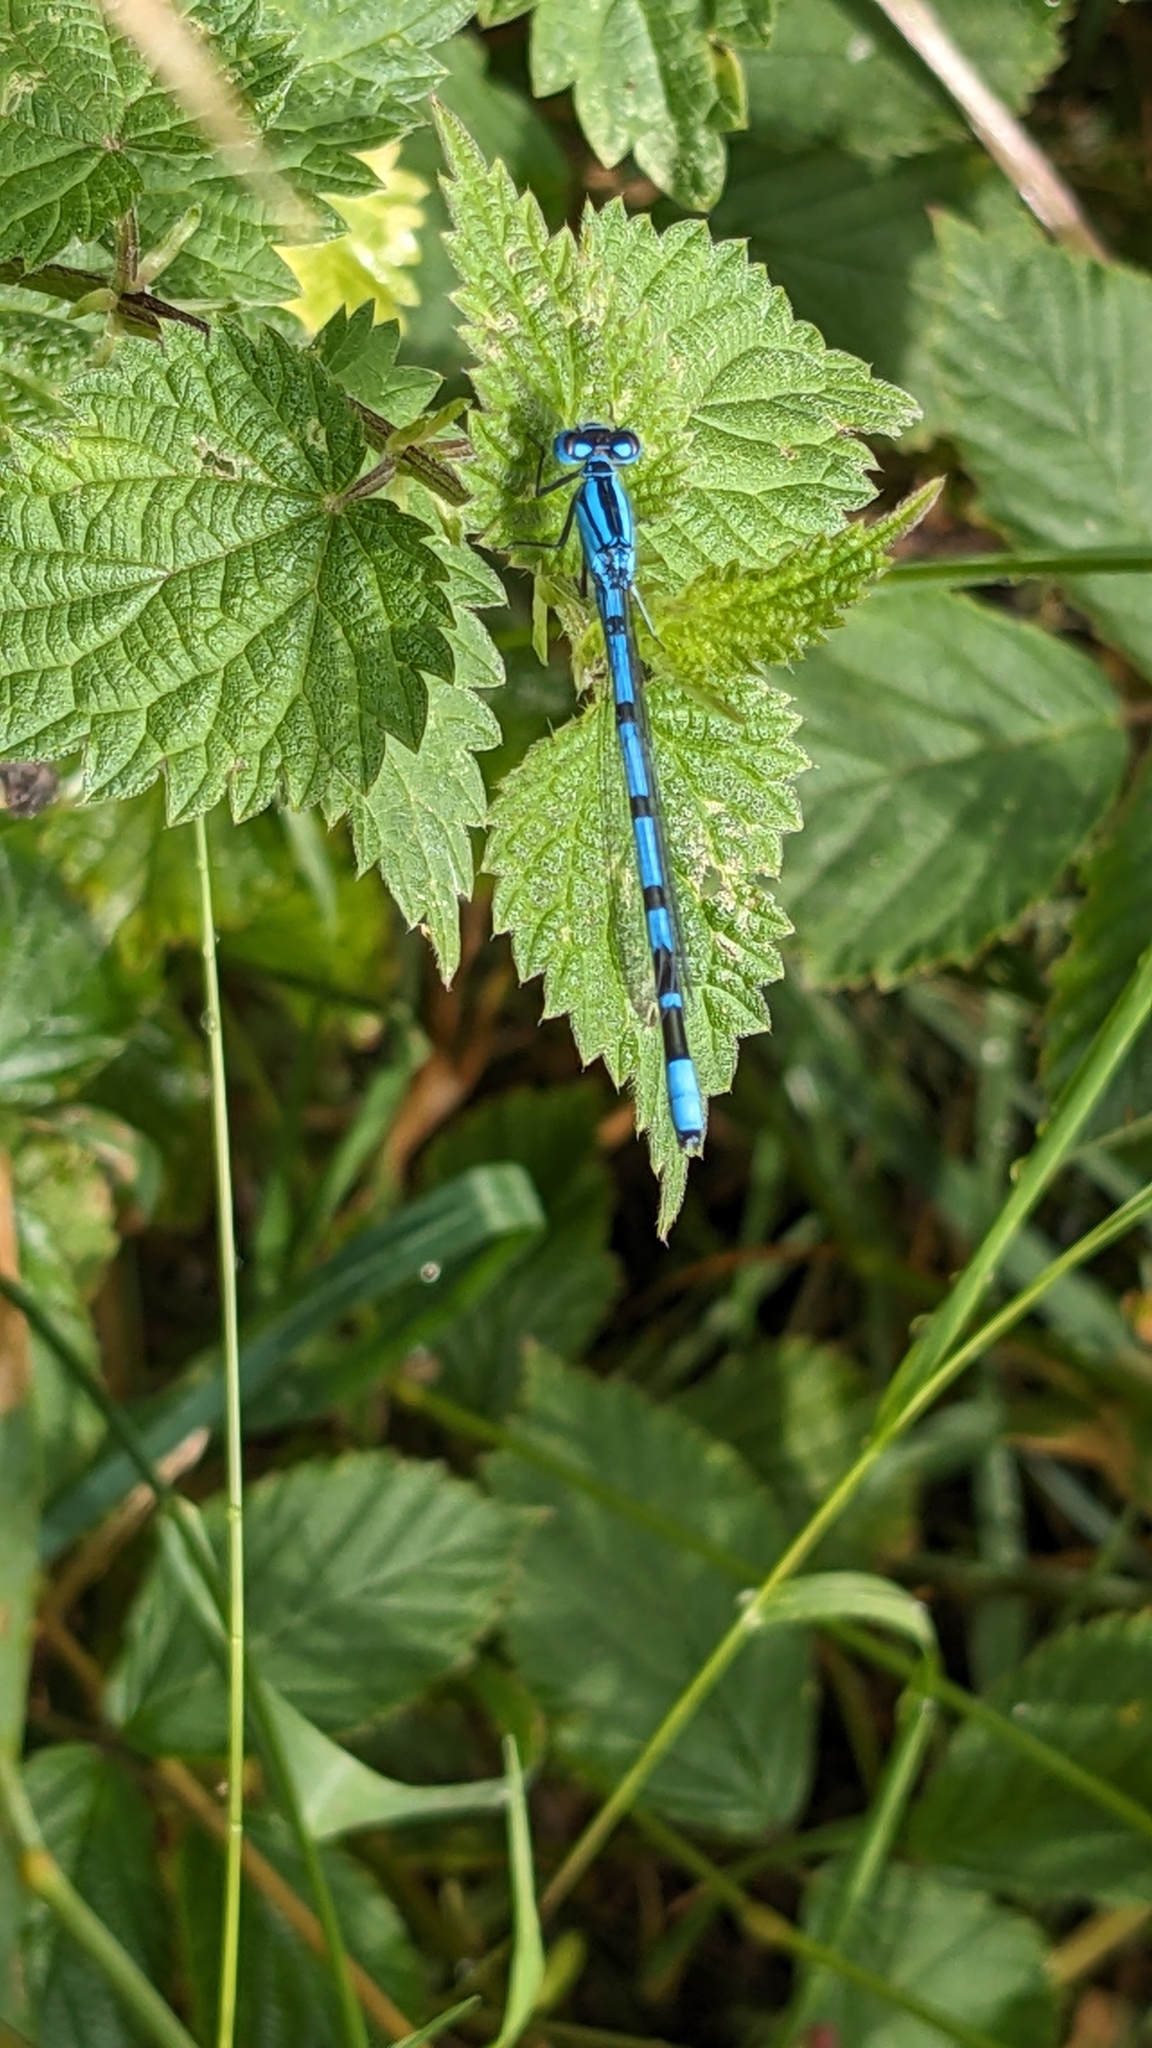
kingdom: Animalia
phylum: Arthropoda
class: Insecta
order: Odonata
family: Coenagrionidae
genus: Enallagma
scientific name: Enallagma cyathigerum
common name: Common blue damselfly
